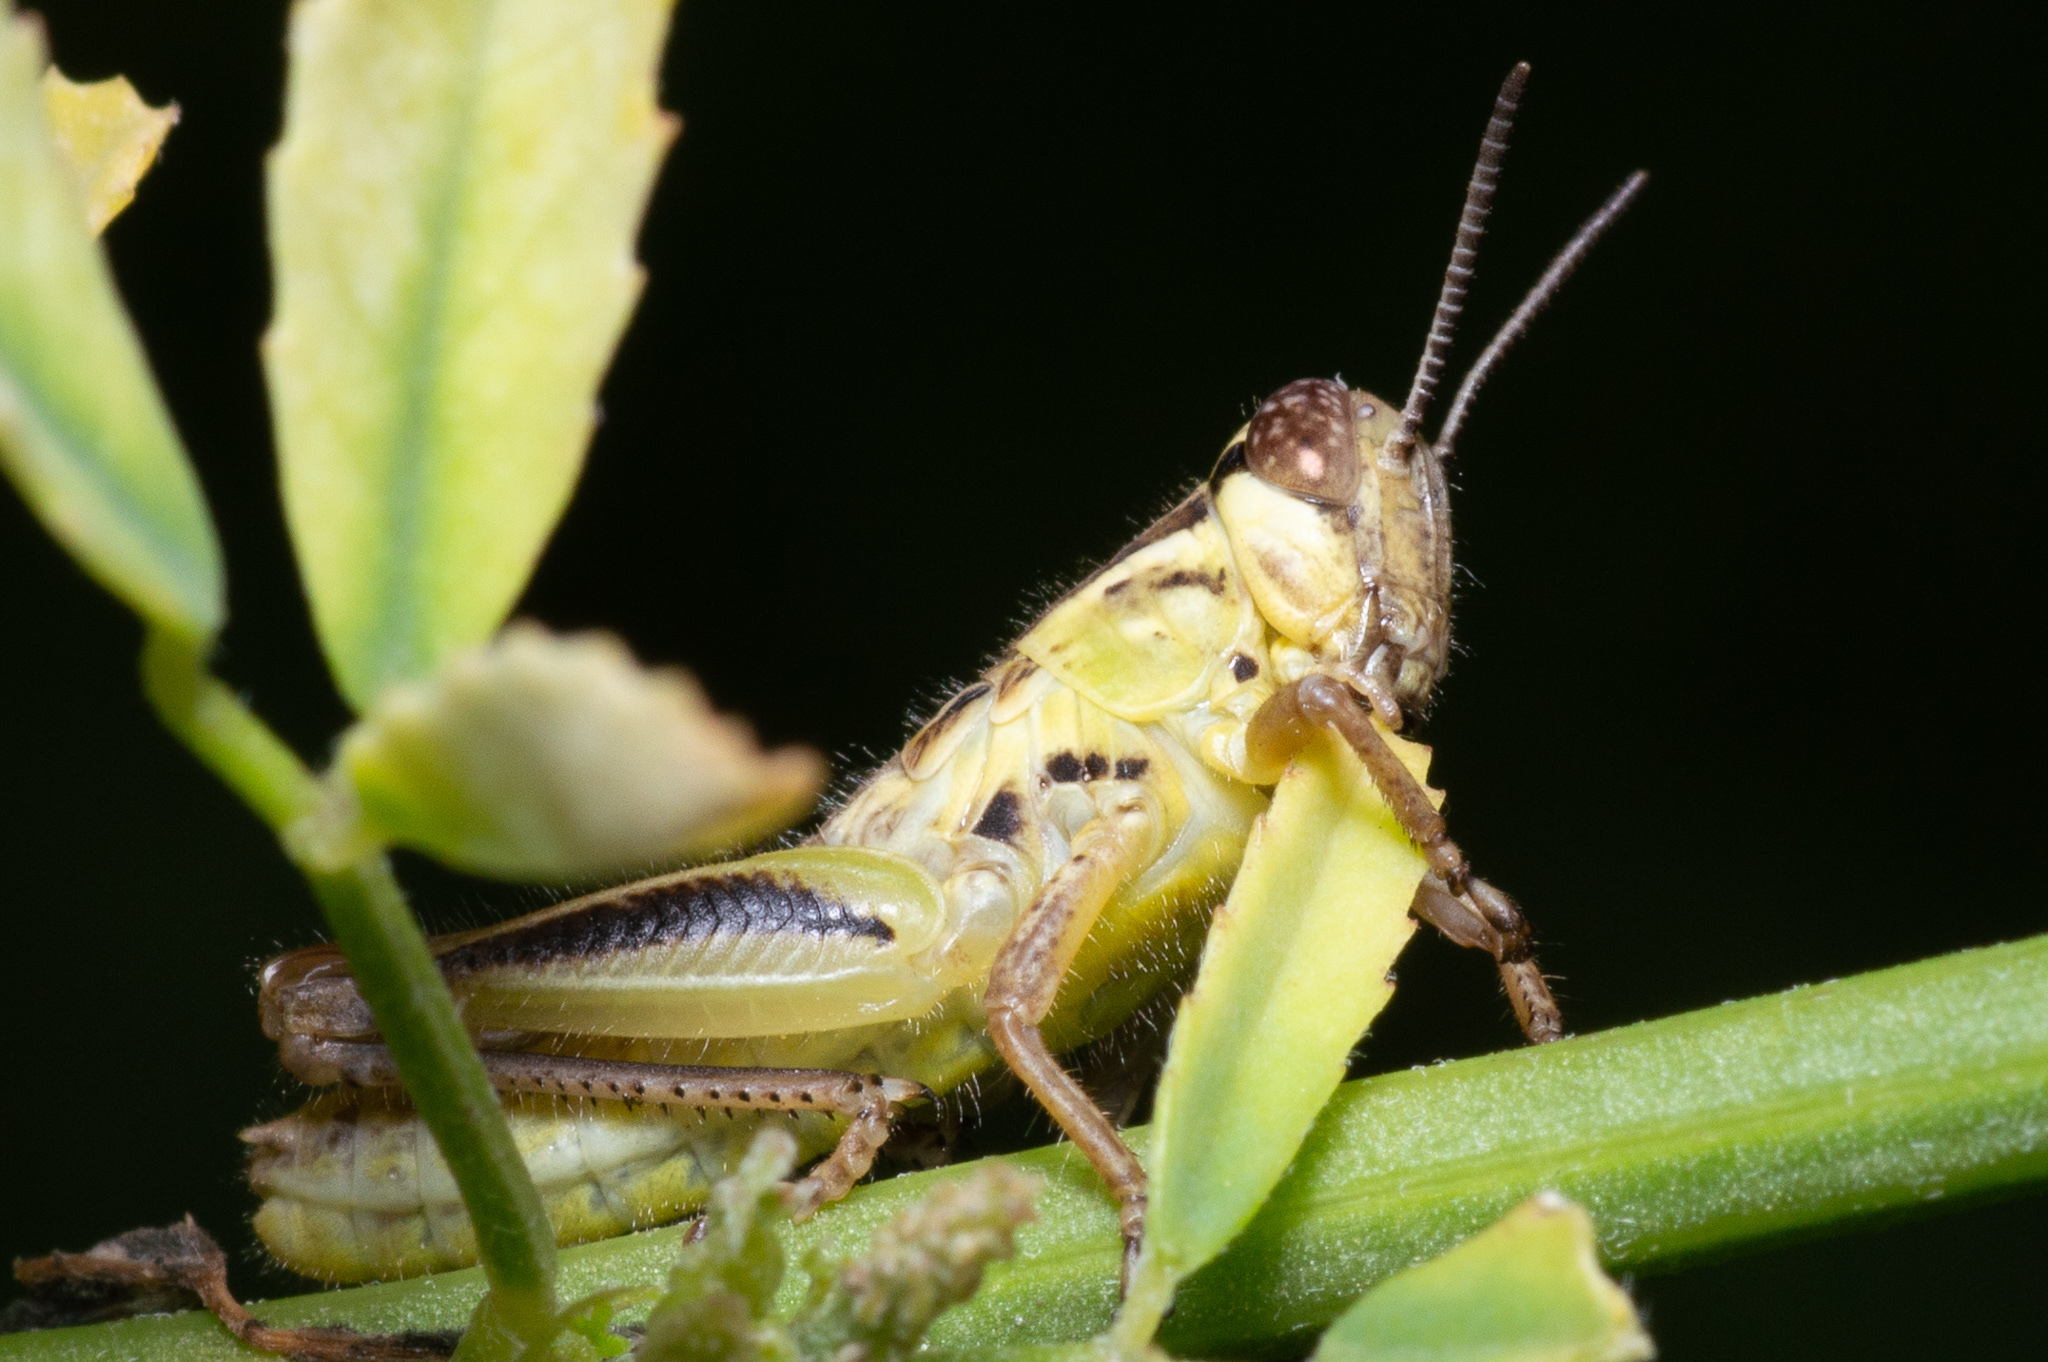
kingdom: Animalia
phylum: Arthropoda
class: Insecta
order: Orthoptera
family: Acrididae
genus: Melanoplus
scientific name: Melanoplus
